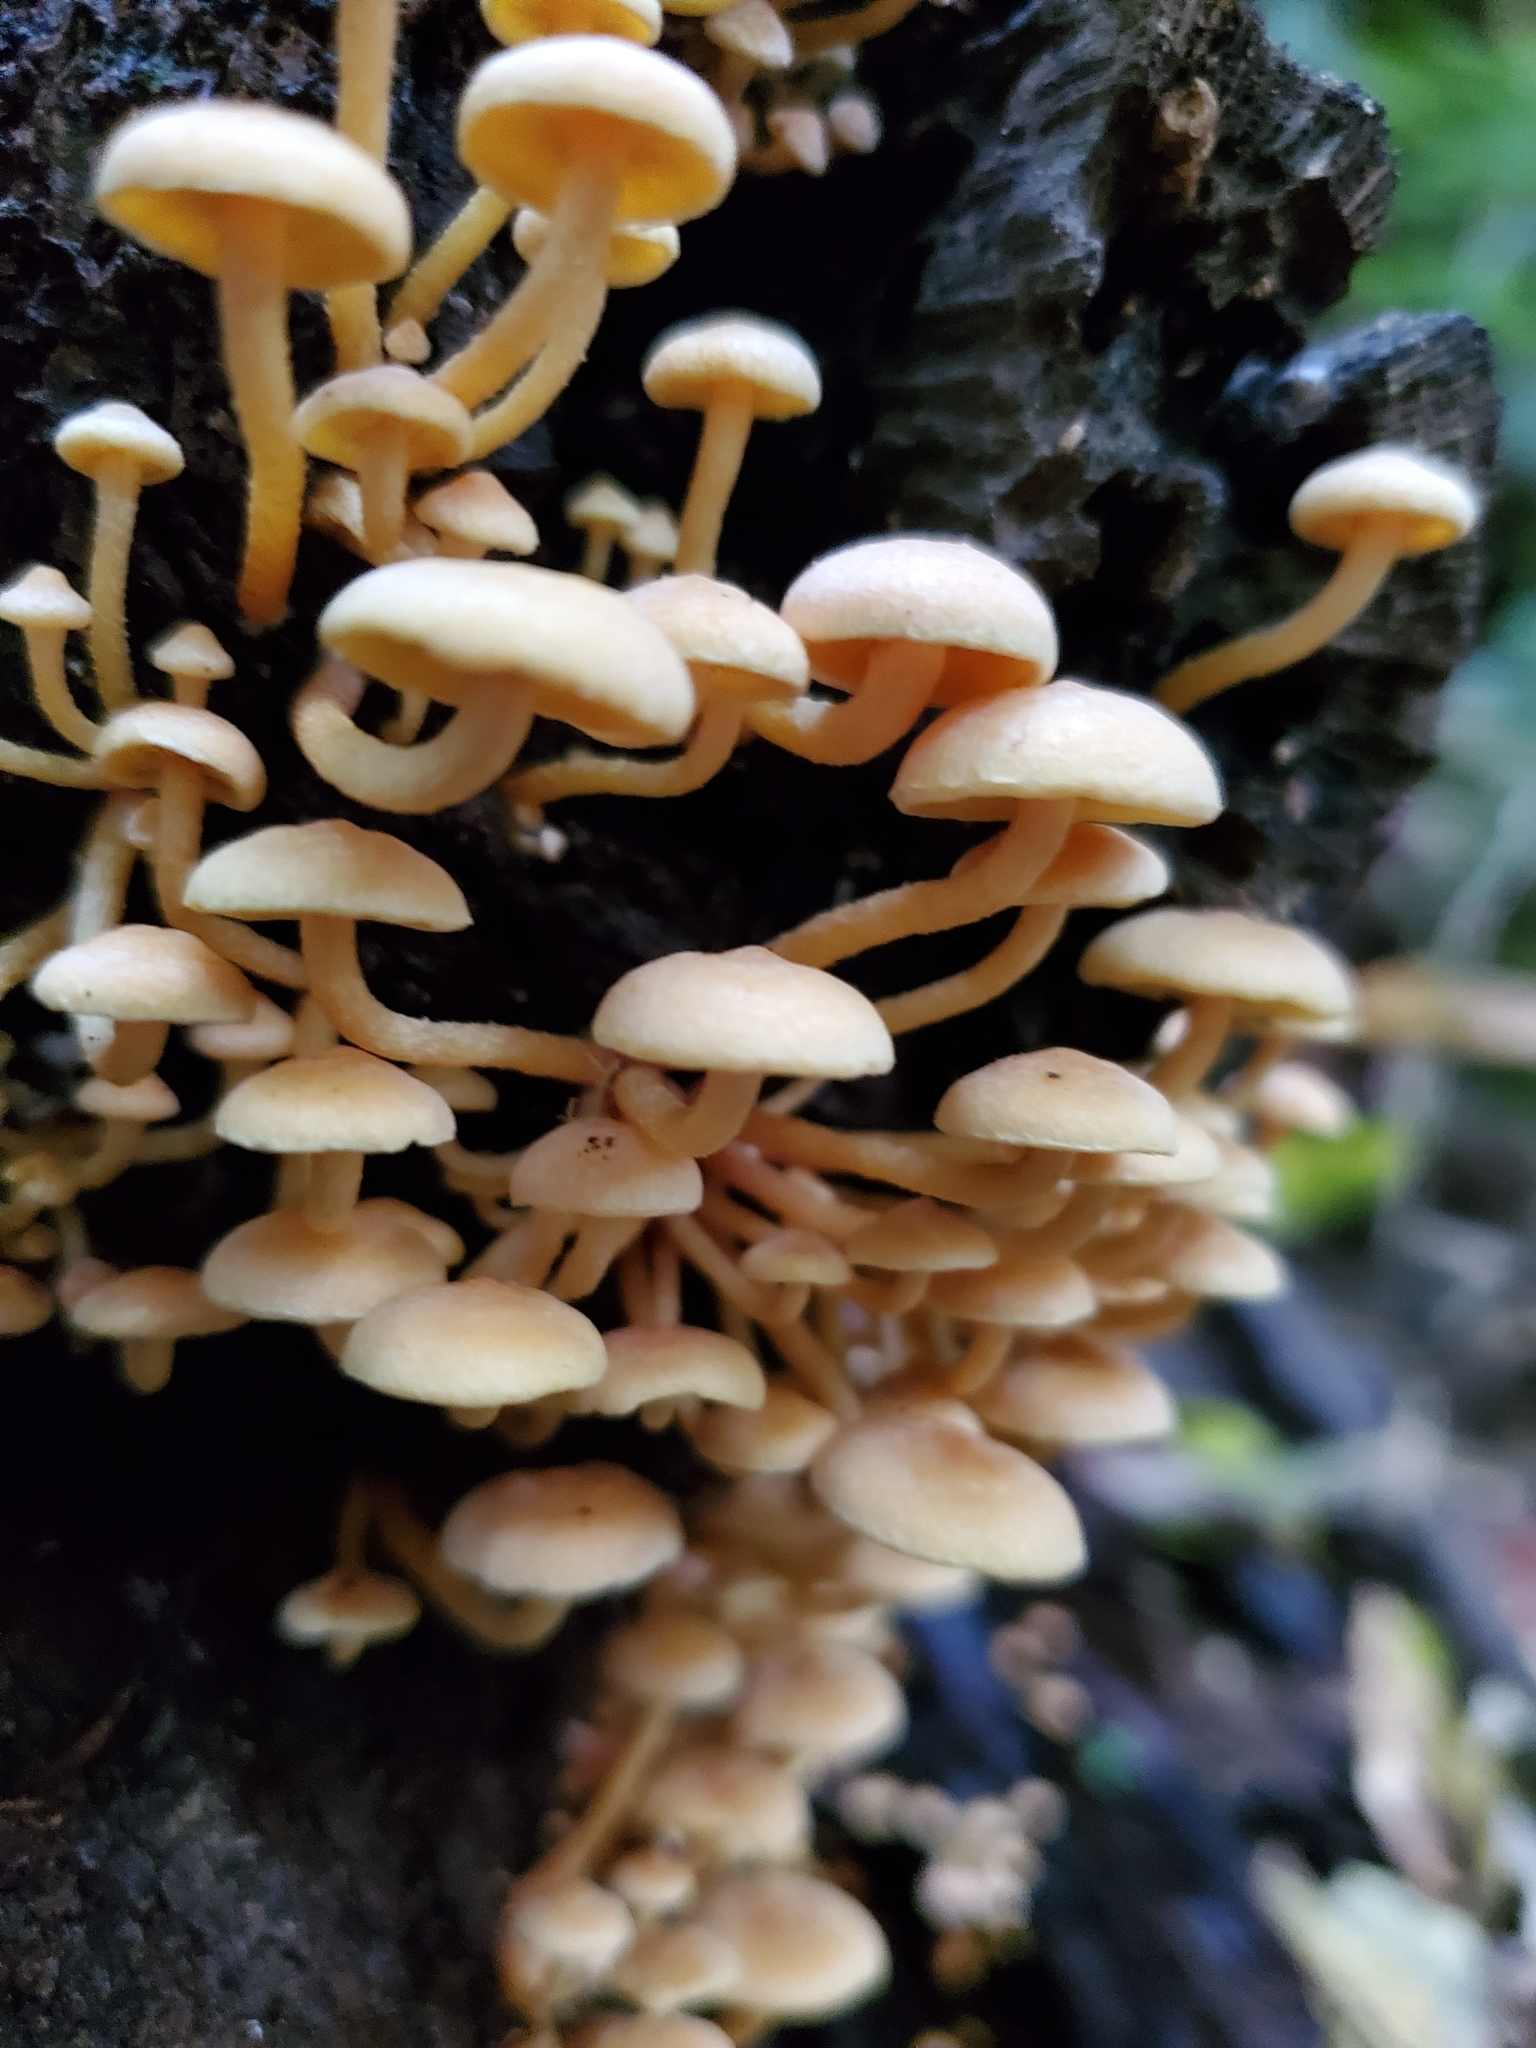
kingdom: Fungi
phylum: Basidiomycota
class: Agaricomycetes
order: Agaricales
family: Strophariaceae
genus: Hypholoma
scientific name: Hypholoma acutum
